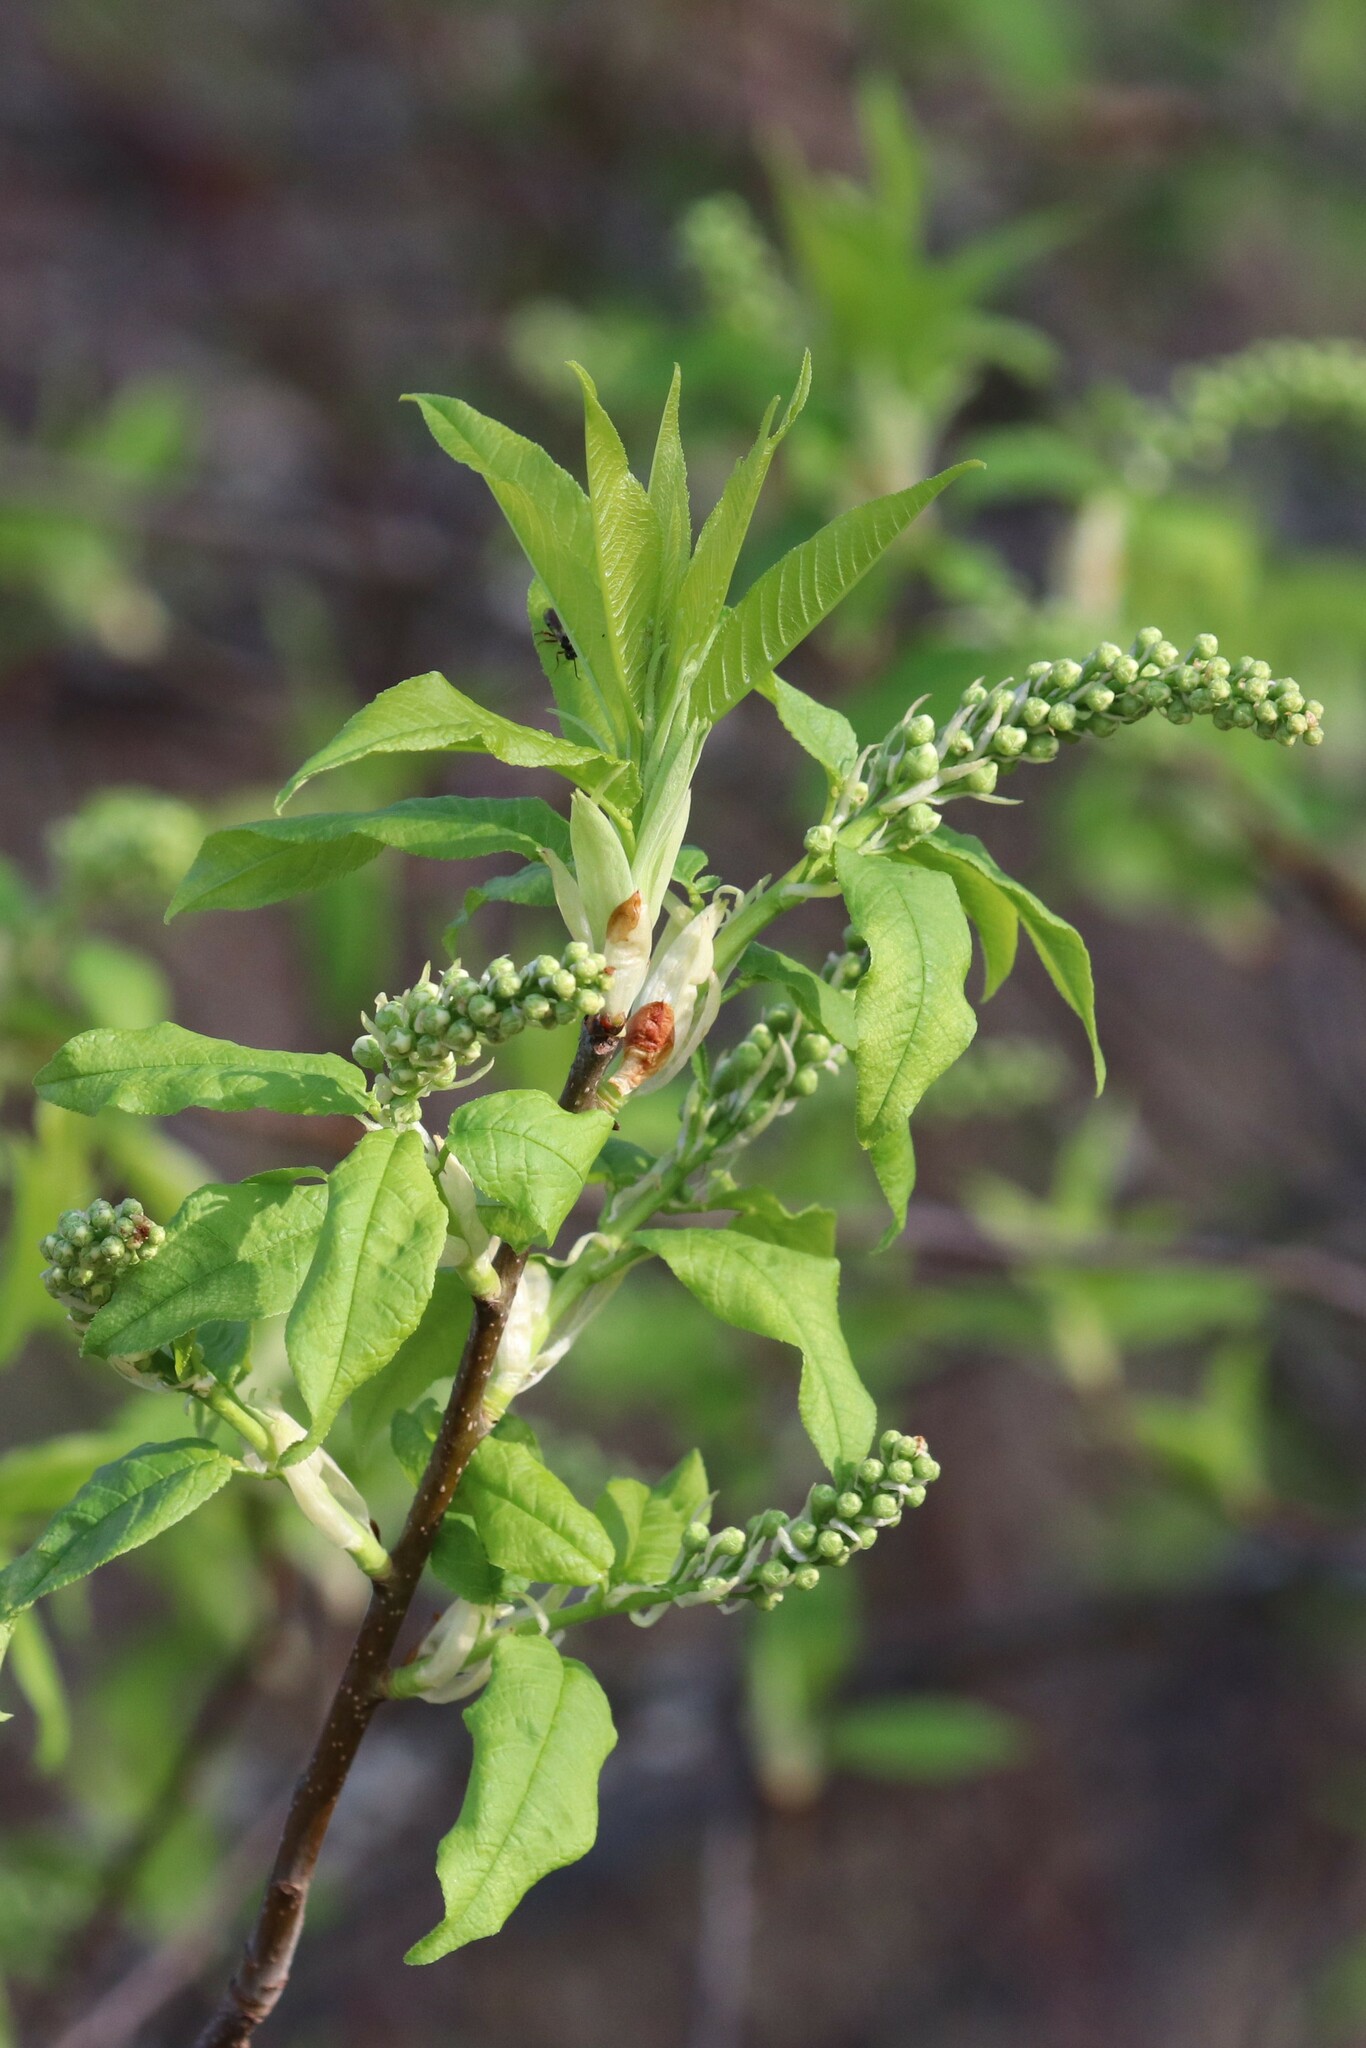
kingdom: Plantae
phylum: Tracheophyta
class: Magnoliopsida
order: Rosales
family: Rosaceae
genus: Prunus
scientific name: Prunus padus
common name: Bird cherry
